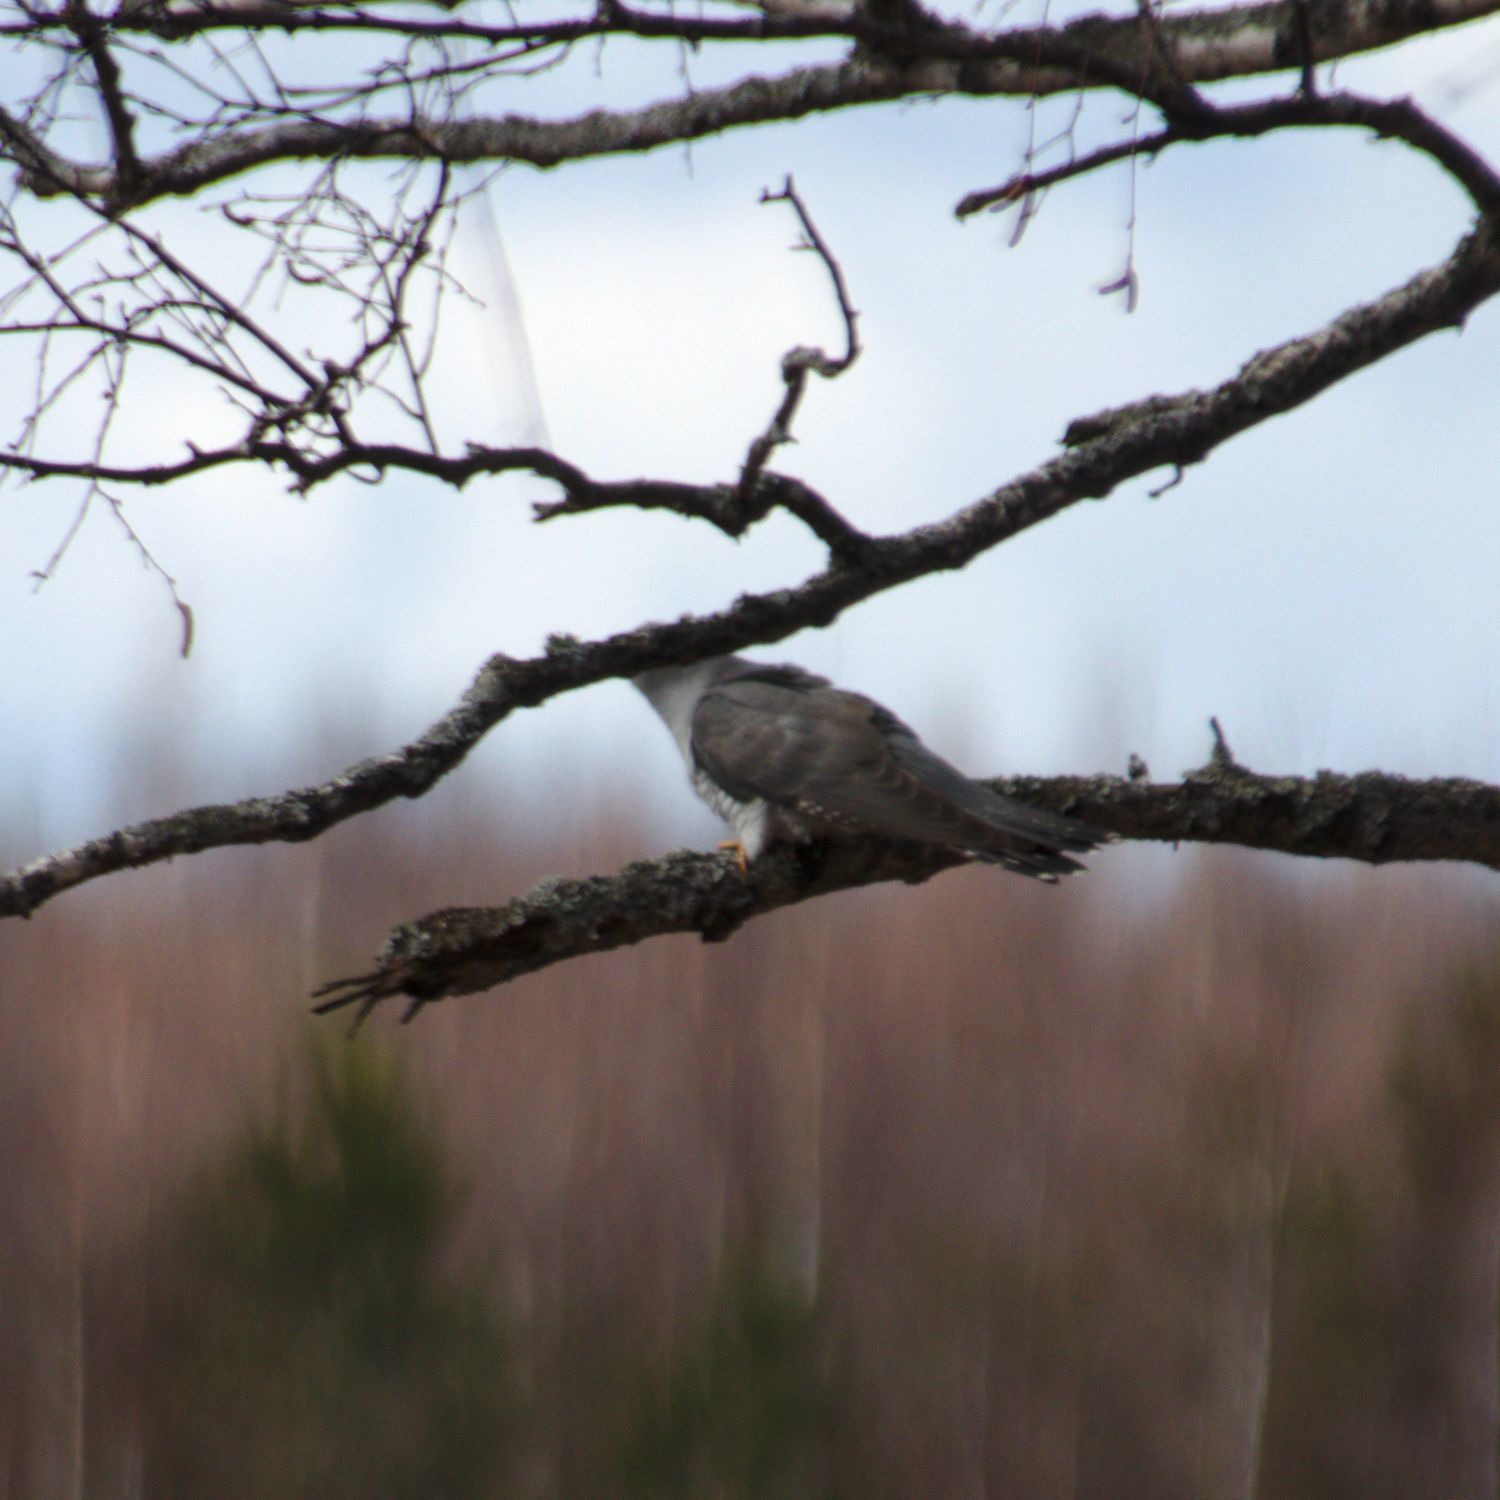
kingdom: Animalia
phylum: Chordata
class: Aves
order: Cuculiformes
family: Cuculidae
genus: Cuculus
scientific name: Cuculus canorus
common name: Common cuckoo
